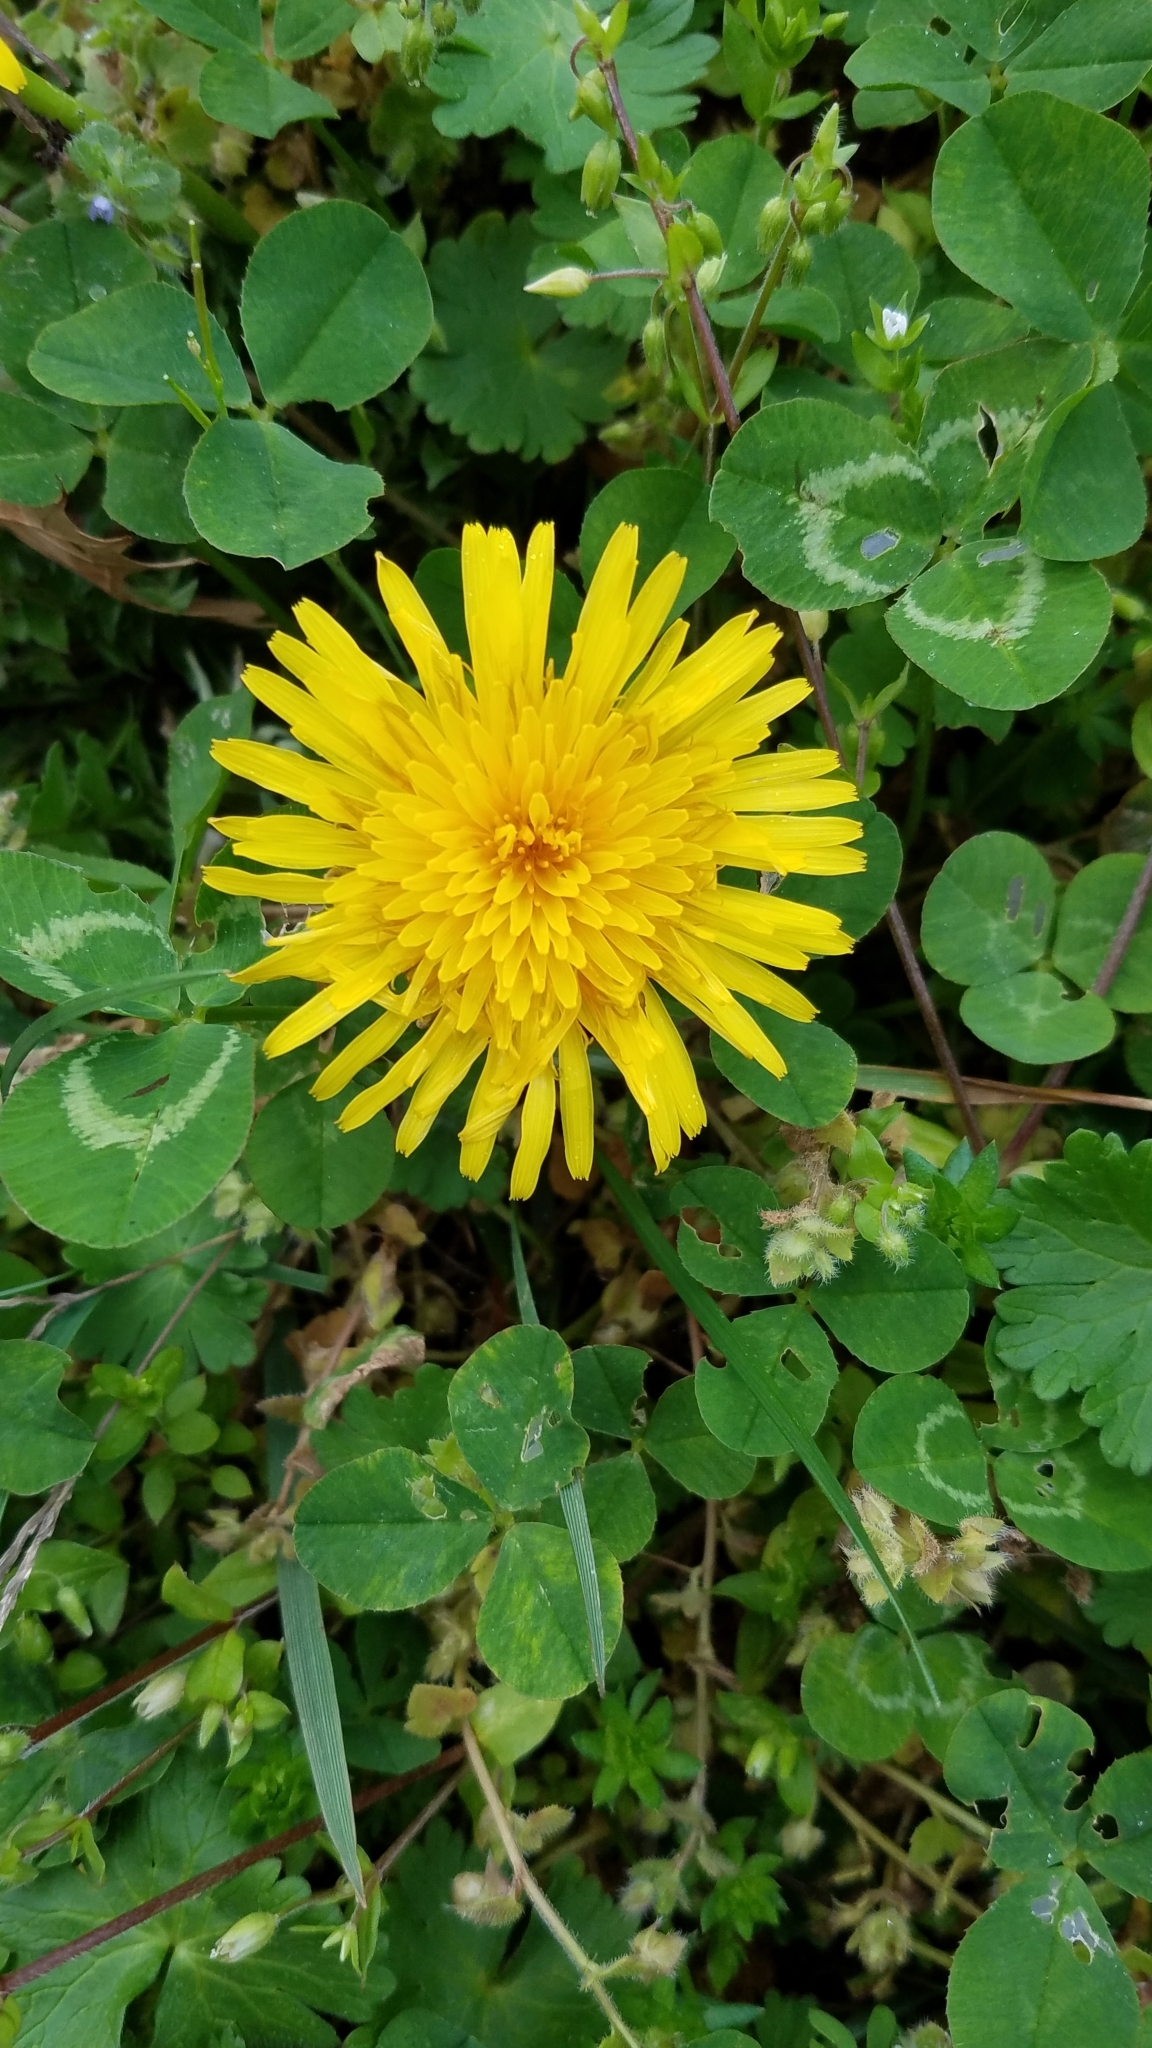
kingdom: Plantae
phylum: Tracheophyta
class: Magnoliopsida
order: Asterales
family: Asteraceae
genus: Taraxacum
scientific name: Taraxacum officinale
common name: Common dandelion
